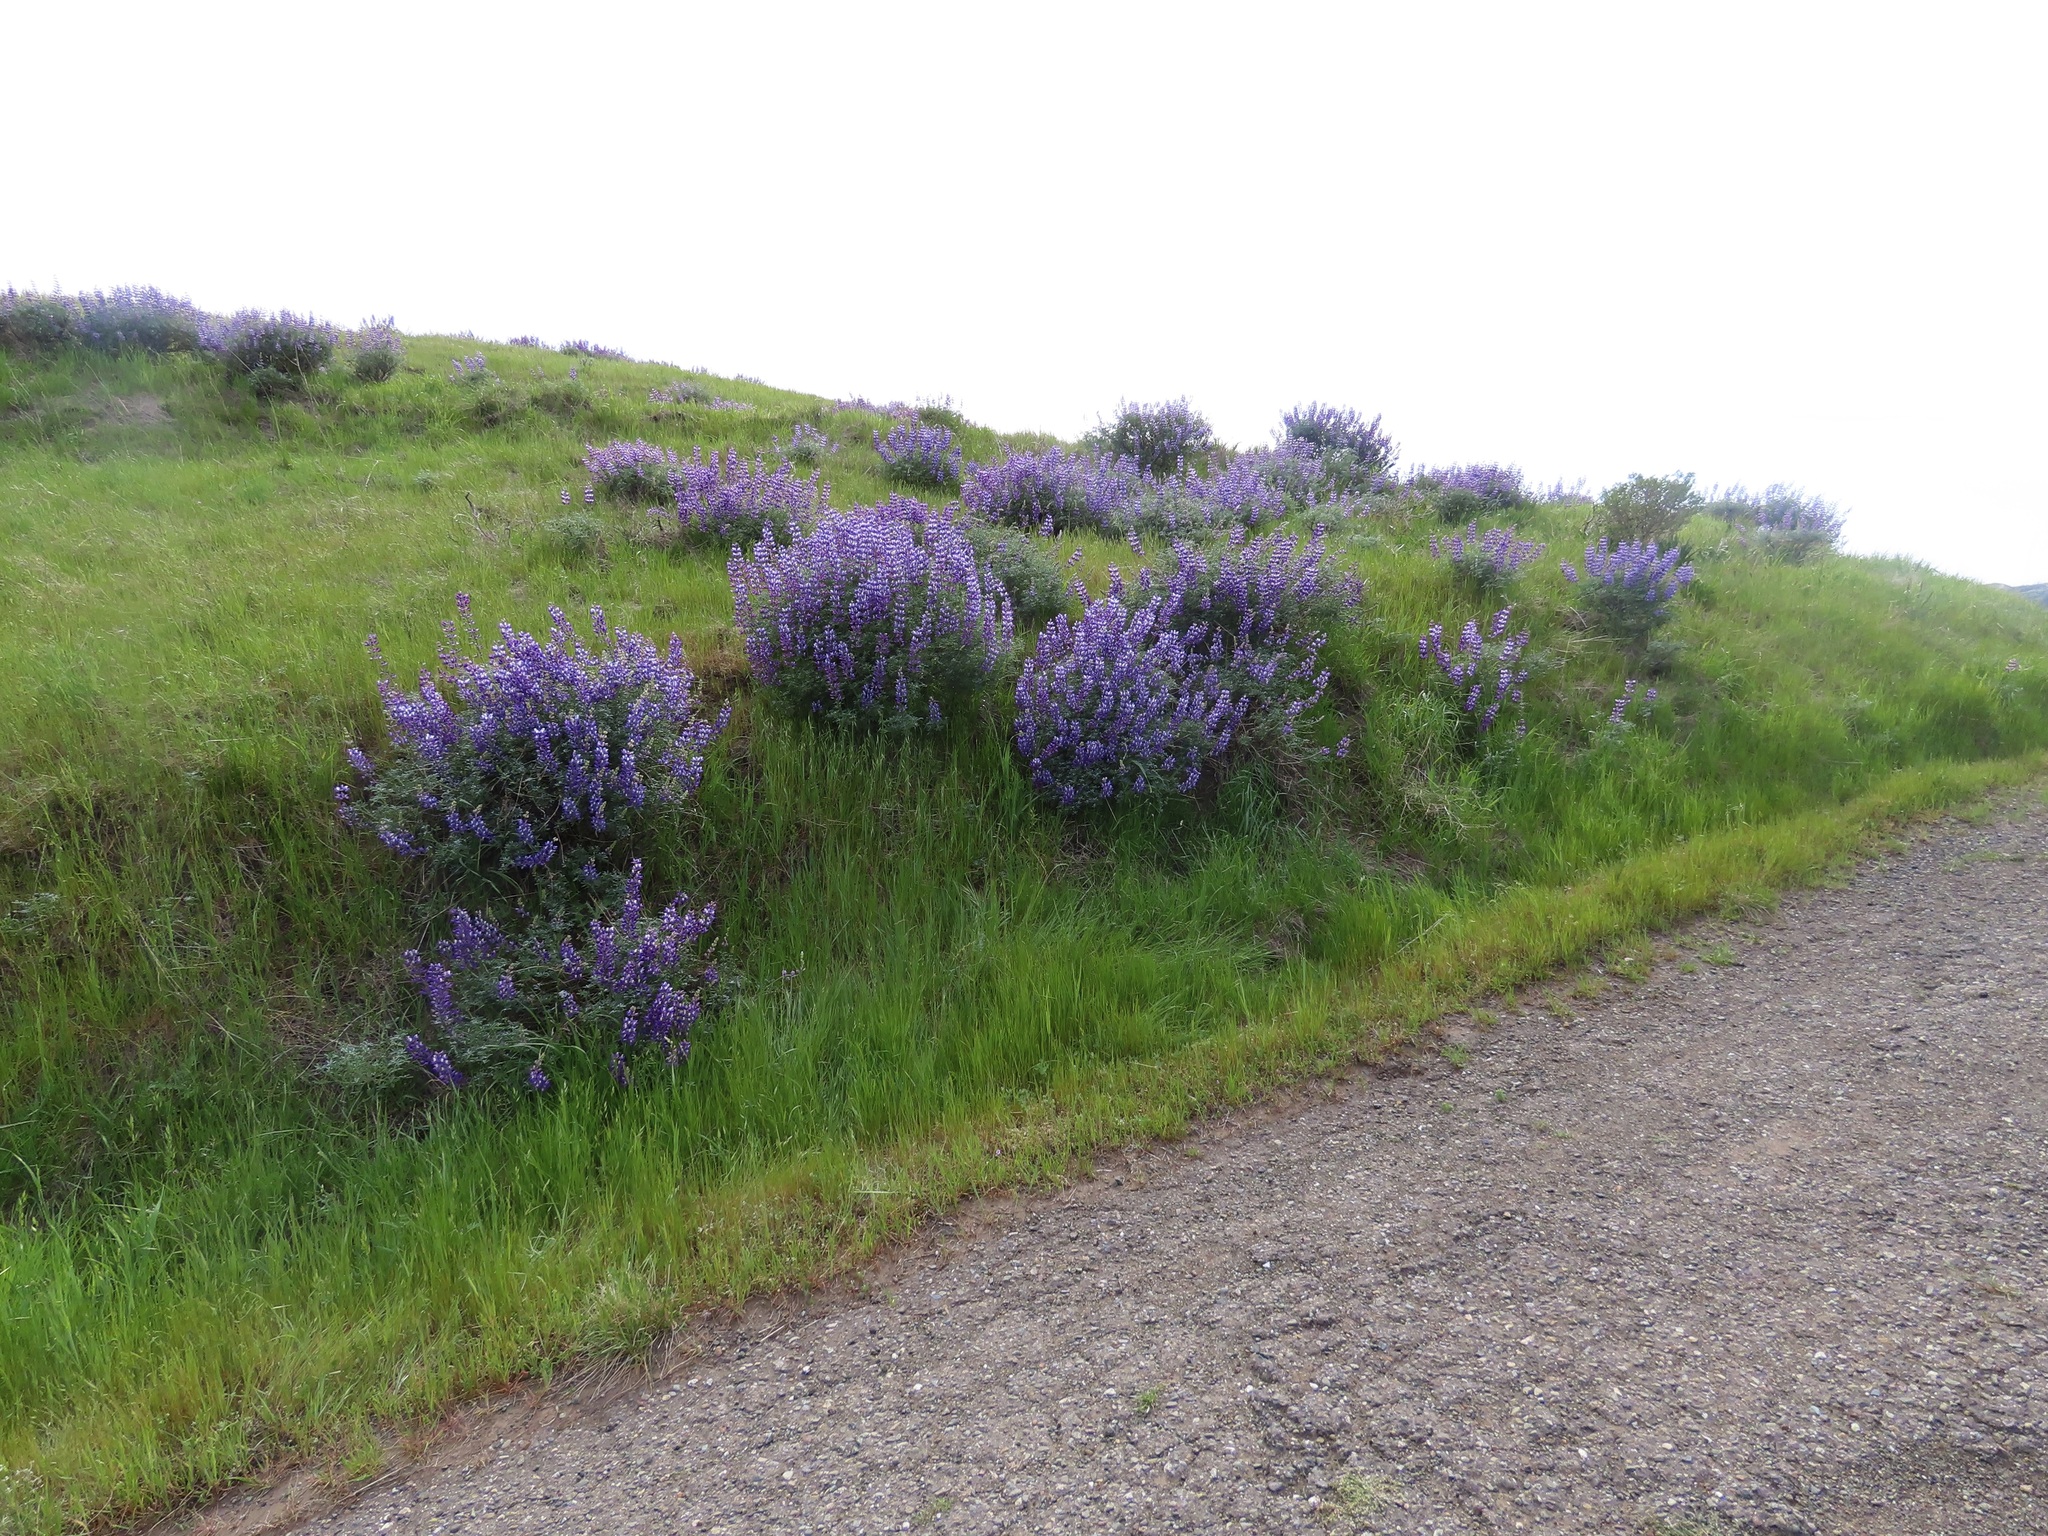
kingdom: Plantae
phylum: Tracheophyta
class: Magnoliopsida
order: Fabales
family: Fabaceae
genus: Lupinus
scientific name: Lupinus albifrons
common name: Foothill lupine
